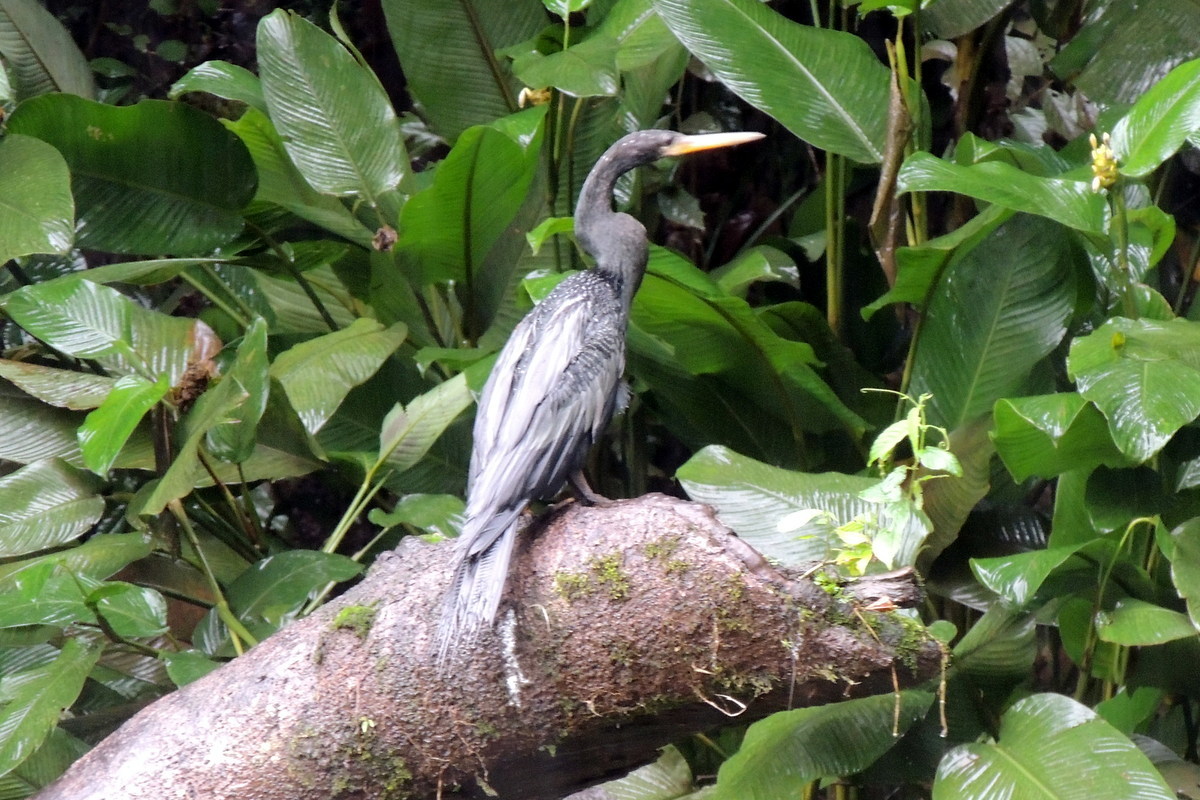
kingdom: Animalia
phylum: Chordata
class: Aves
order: Suliformes
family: Anhingidae
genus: Anhinga
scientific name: Anhinga anhinga
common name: Anhinga
